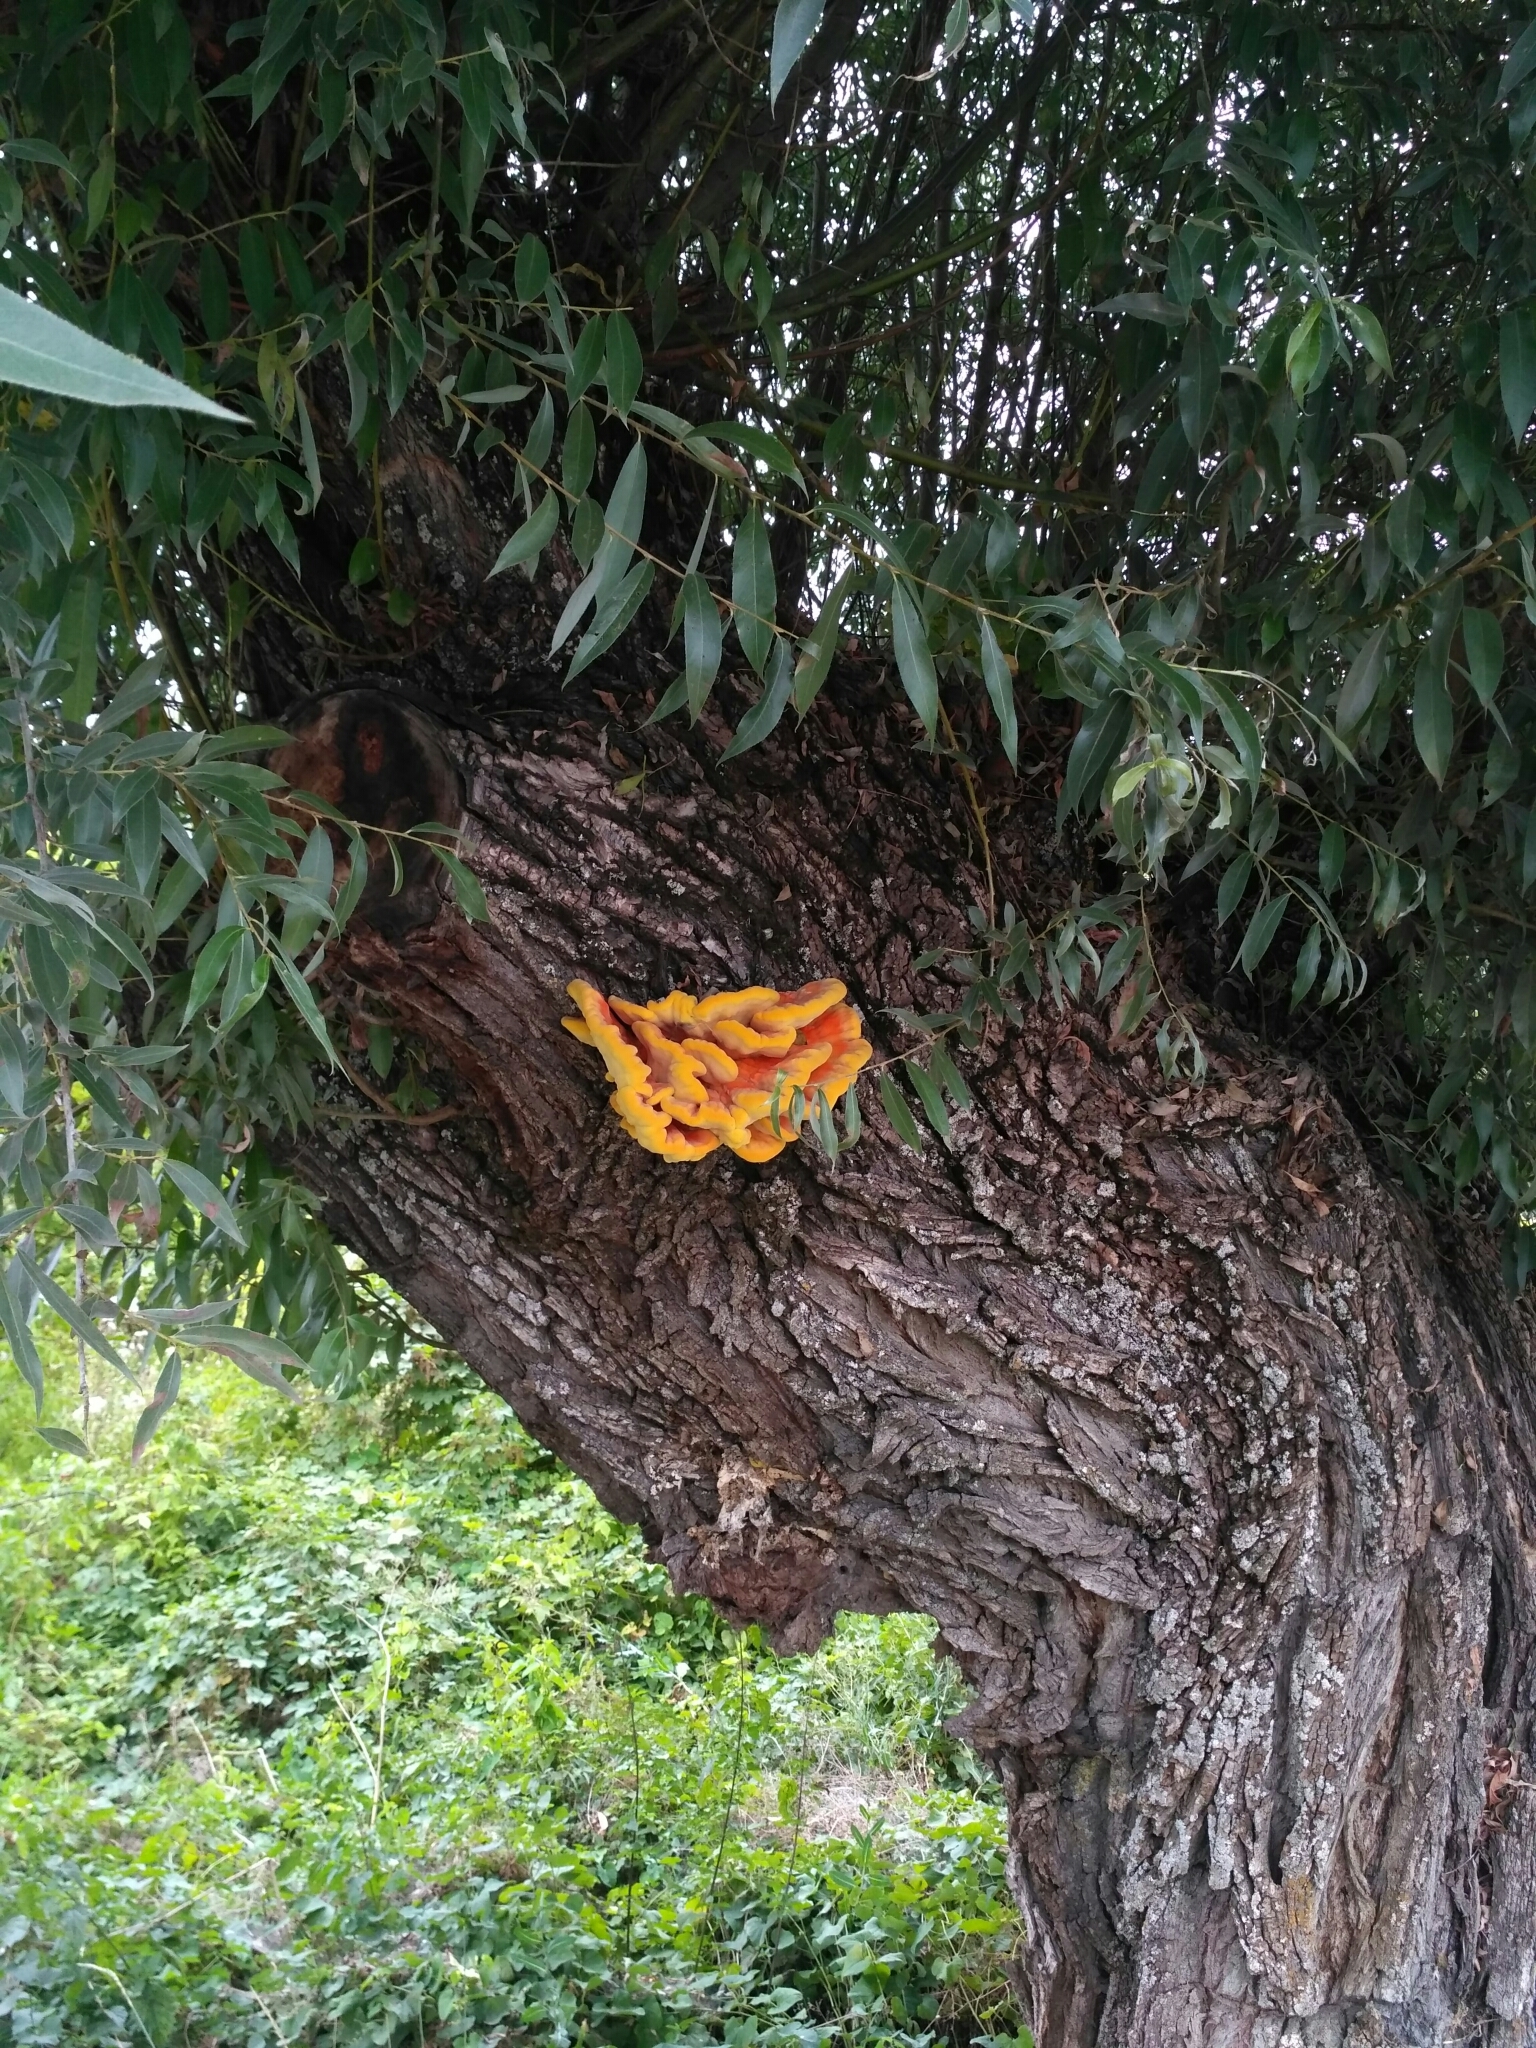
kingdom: Fungi
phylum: Basidiomycota
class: Agaricomycetes
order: Polyporales
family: Laetiporaceae
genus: Laetiporus
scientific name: Laetiporus sulphureus
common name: Chicken of the woods
